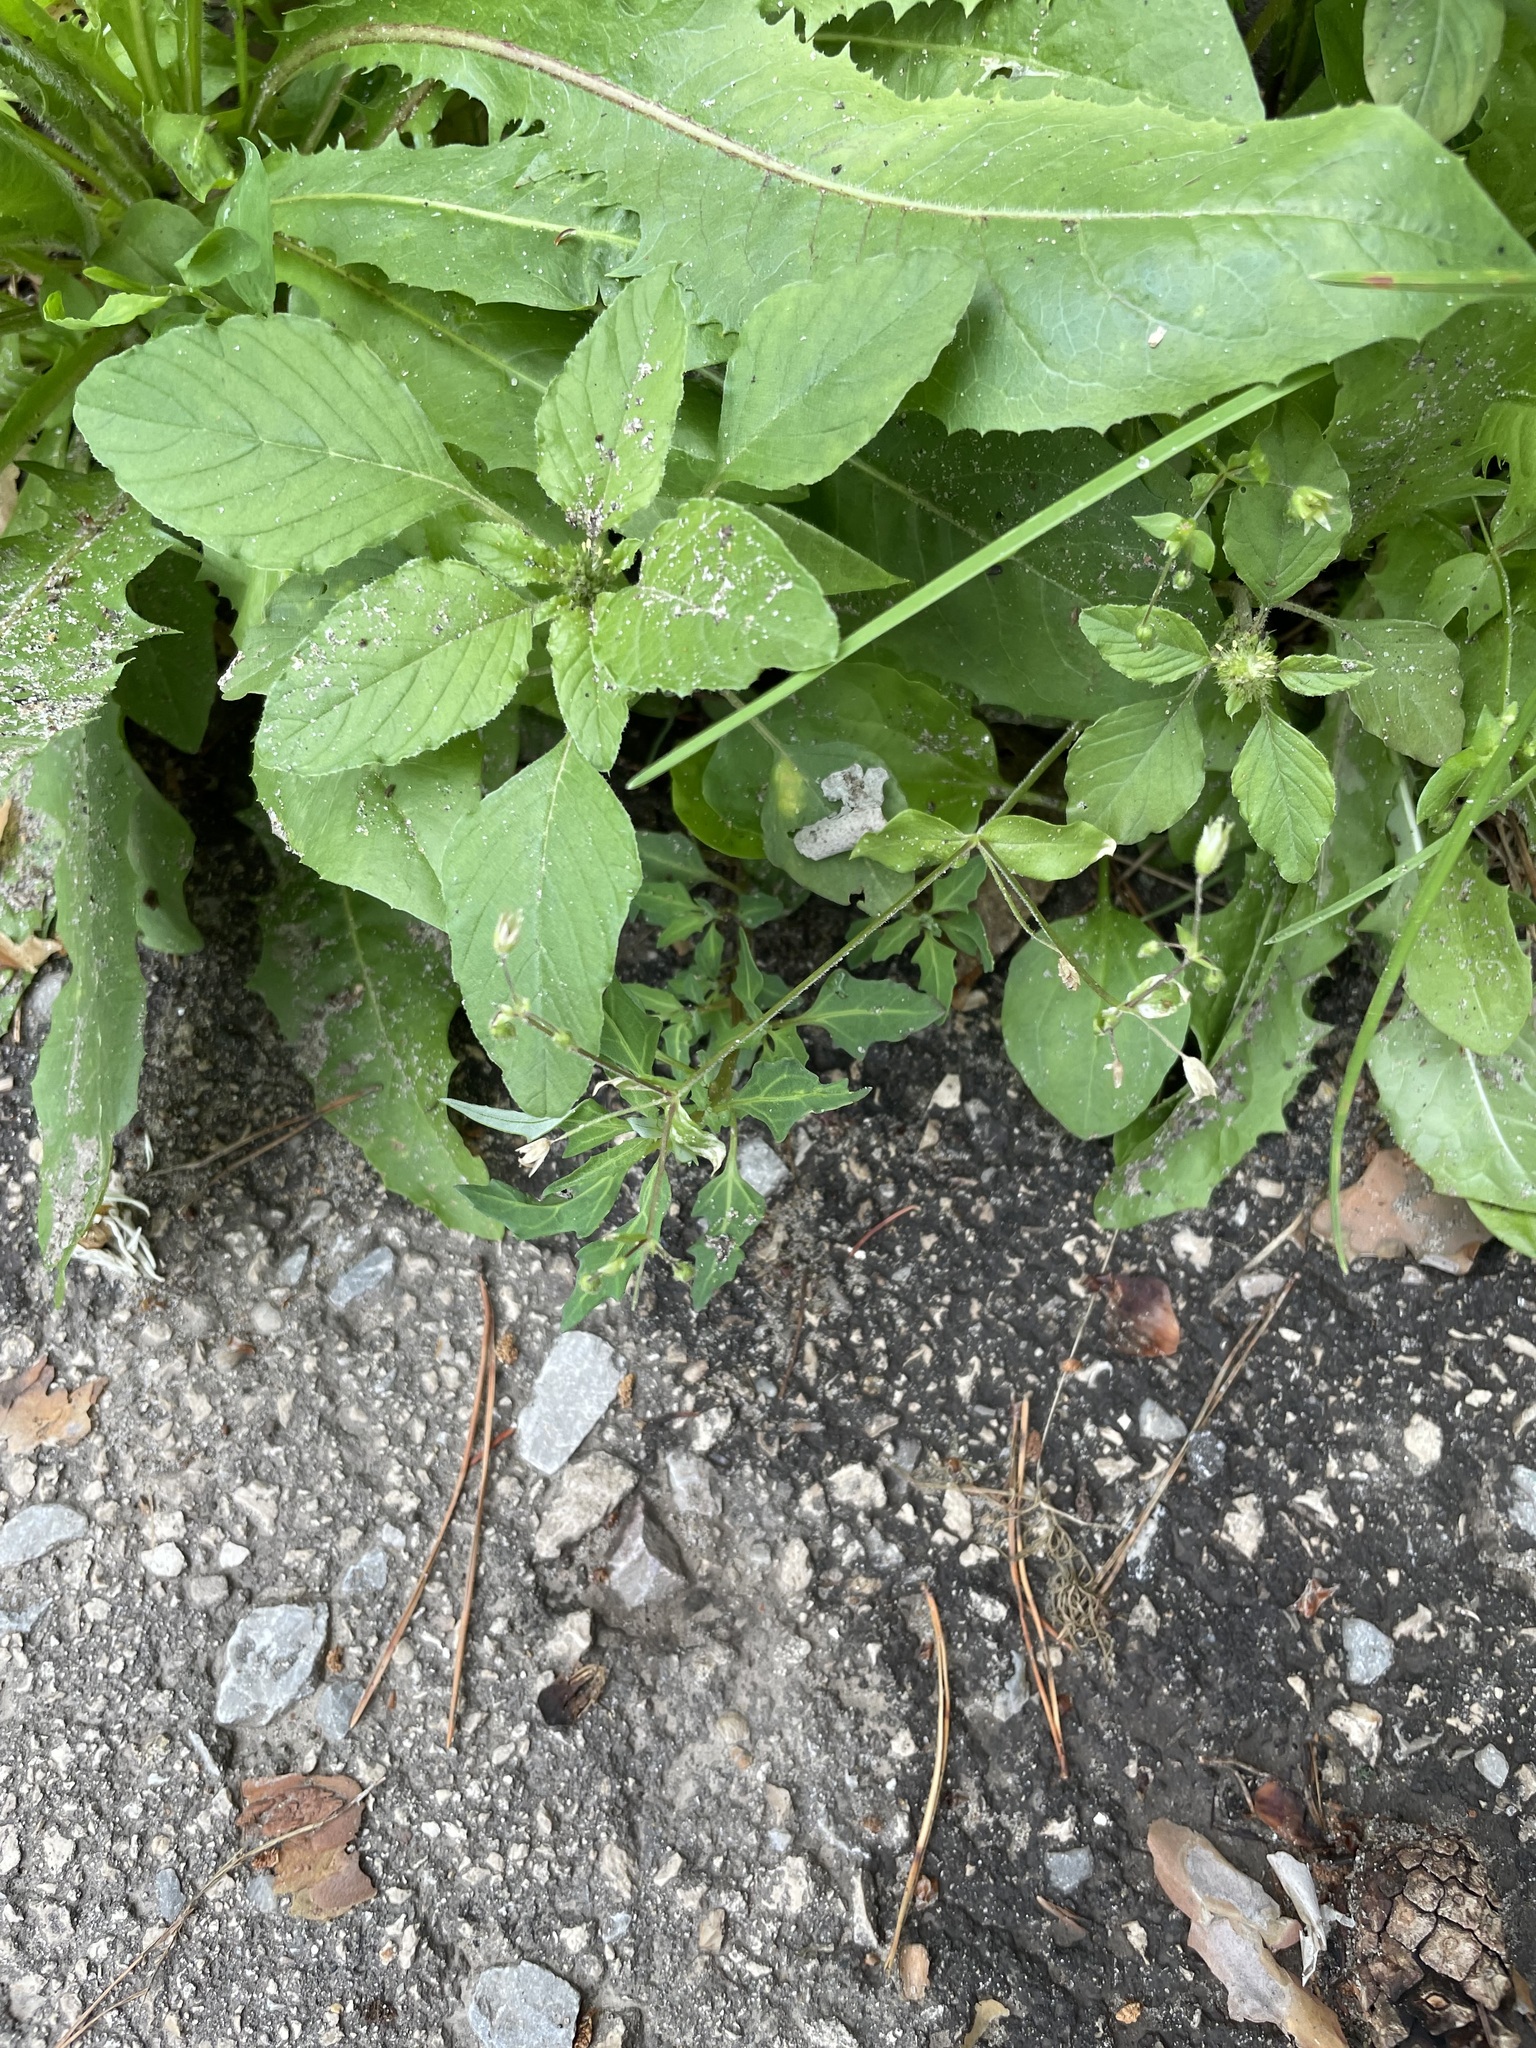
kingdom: Plantae
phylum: Tracheophyta
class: Magnoliopsida
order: Caryophyllales
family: Amaranthaceae
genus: Amaranthus
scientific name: Amaranthus retroflexus
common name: Redroot amaranth
